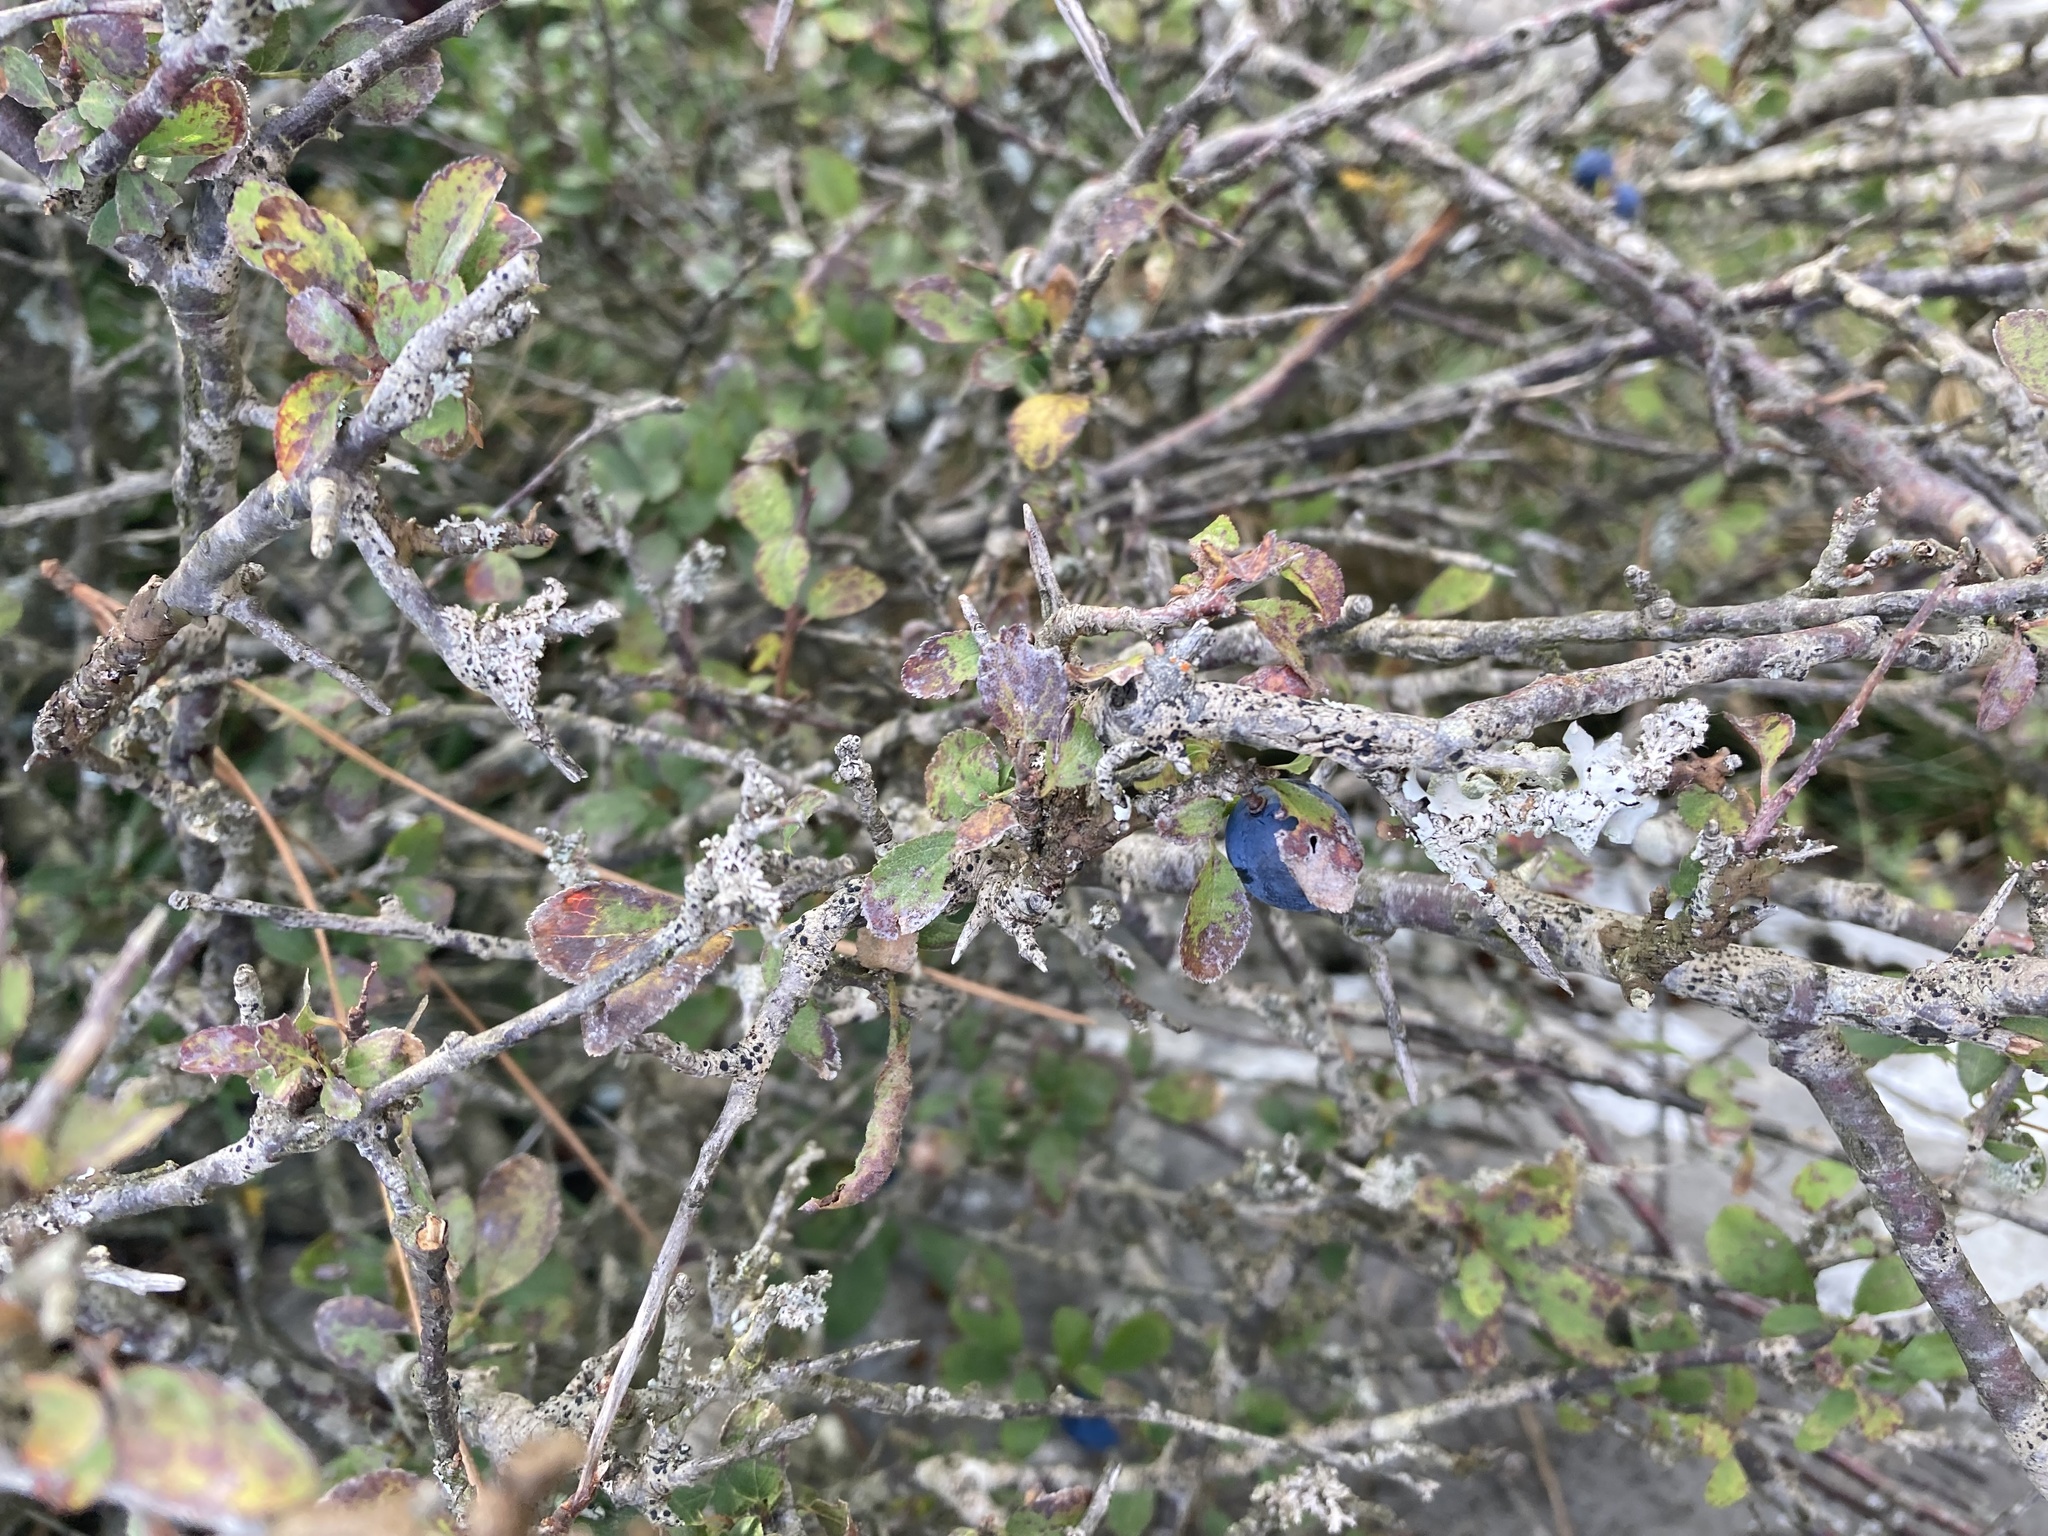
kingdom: Plantae
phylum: Tracheophyta
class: Magnoliopsida
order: Rosales
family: Rosaceae
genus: Prunus
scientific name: Prunus spinosa
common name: Blackthorn
